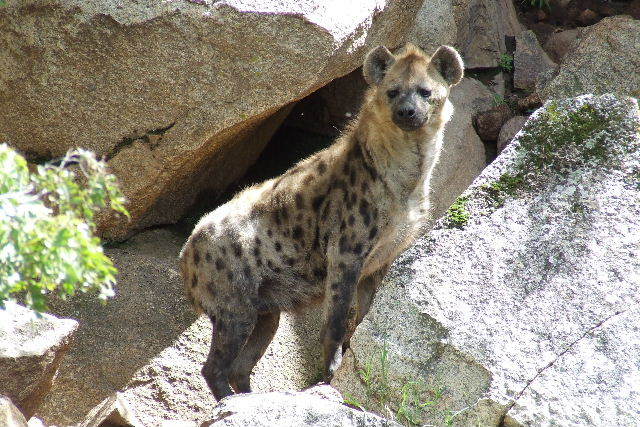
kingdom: Animalia
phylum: Chordata
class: Mammalia
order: Carnivora
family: Hyaenidae
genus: Crocuta
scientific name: Crocuta crocuta
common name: Spotted hyaena
